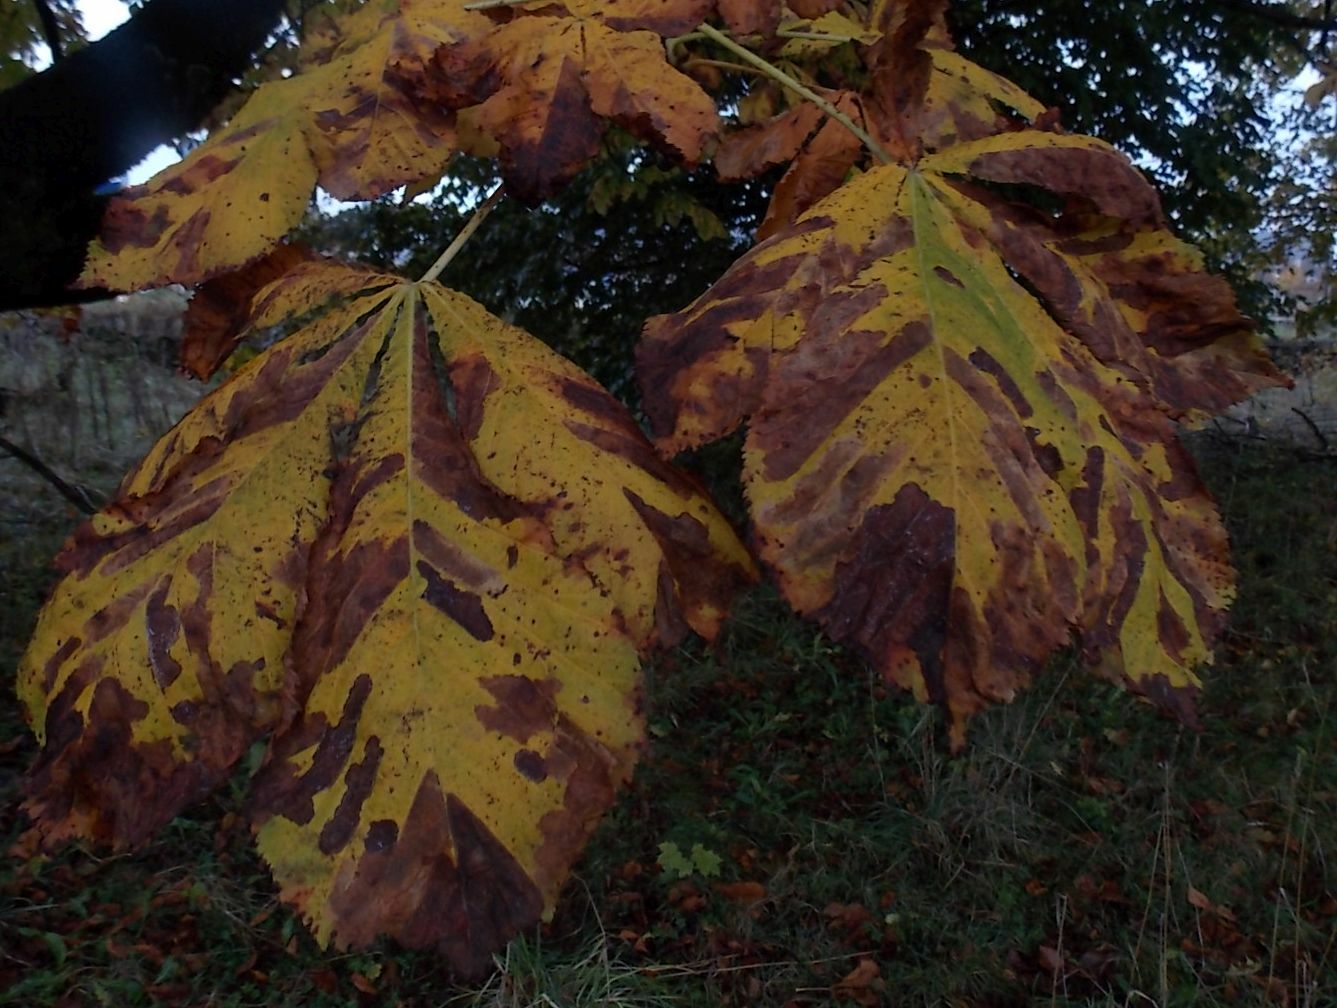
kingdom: Animalia
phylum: Arthropoda
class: Insecta
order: Lepidoptera
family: Gracillariidae
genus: Cameraria
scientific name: Cameraria ohridella
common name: Horse-chestnut leaf-miner
